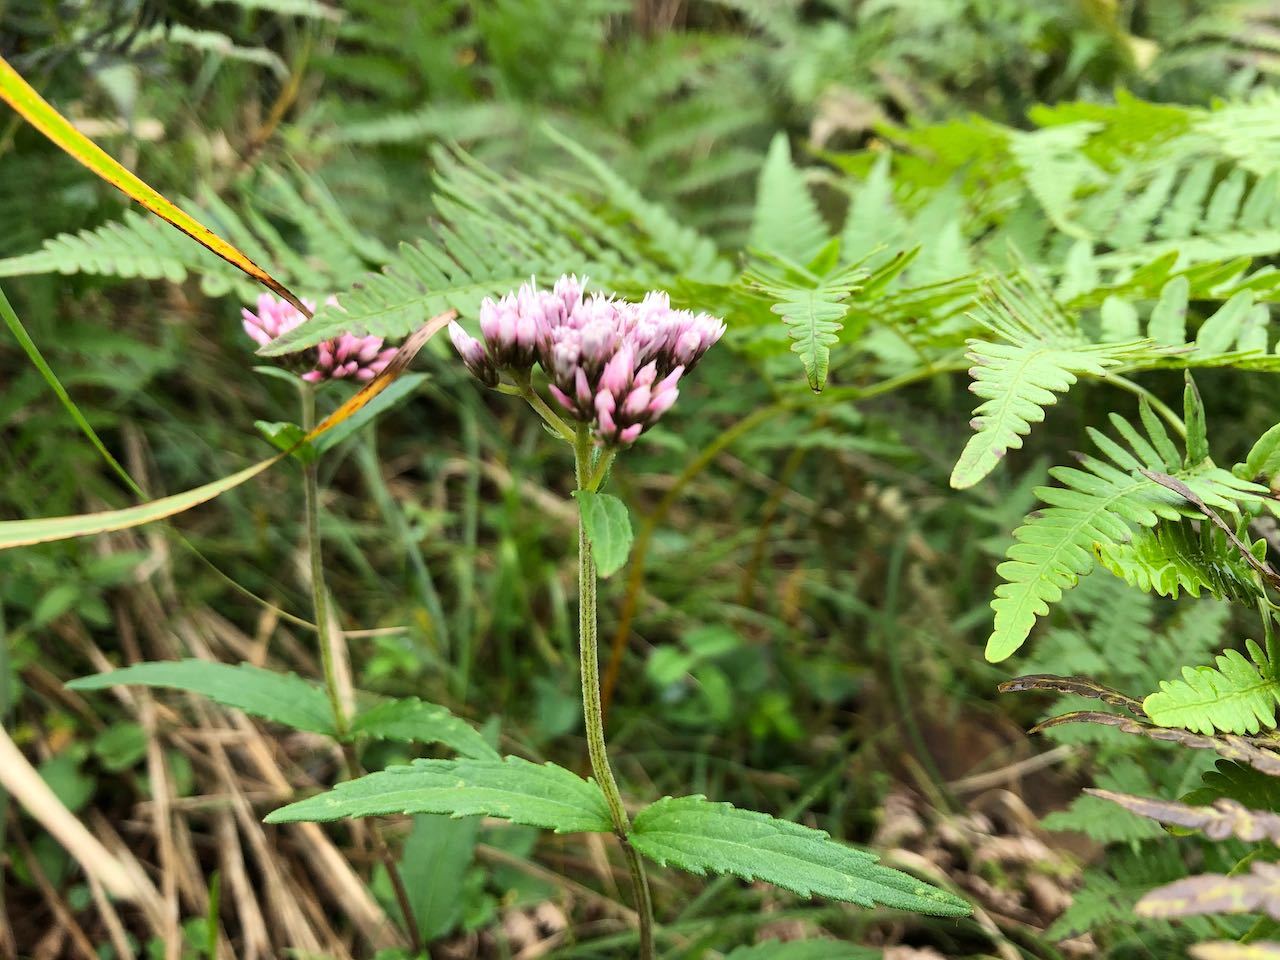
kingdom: Plantae
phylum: Tracheophyta
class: Magnoliopsida
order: Asterales
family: Asteraceae
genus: Eupatorium
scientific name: Eupatorium lindleyanum
